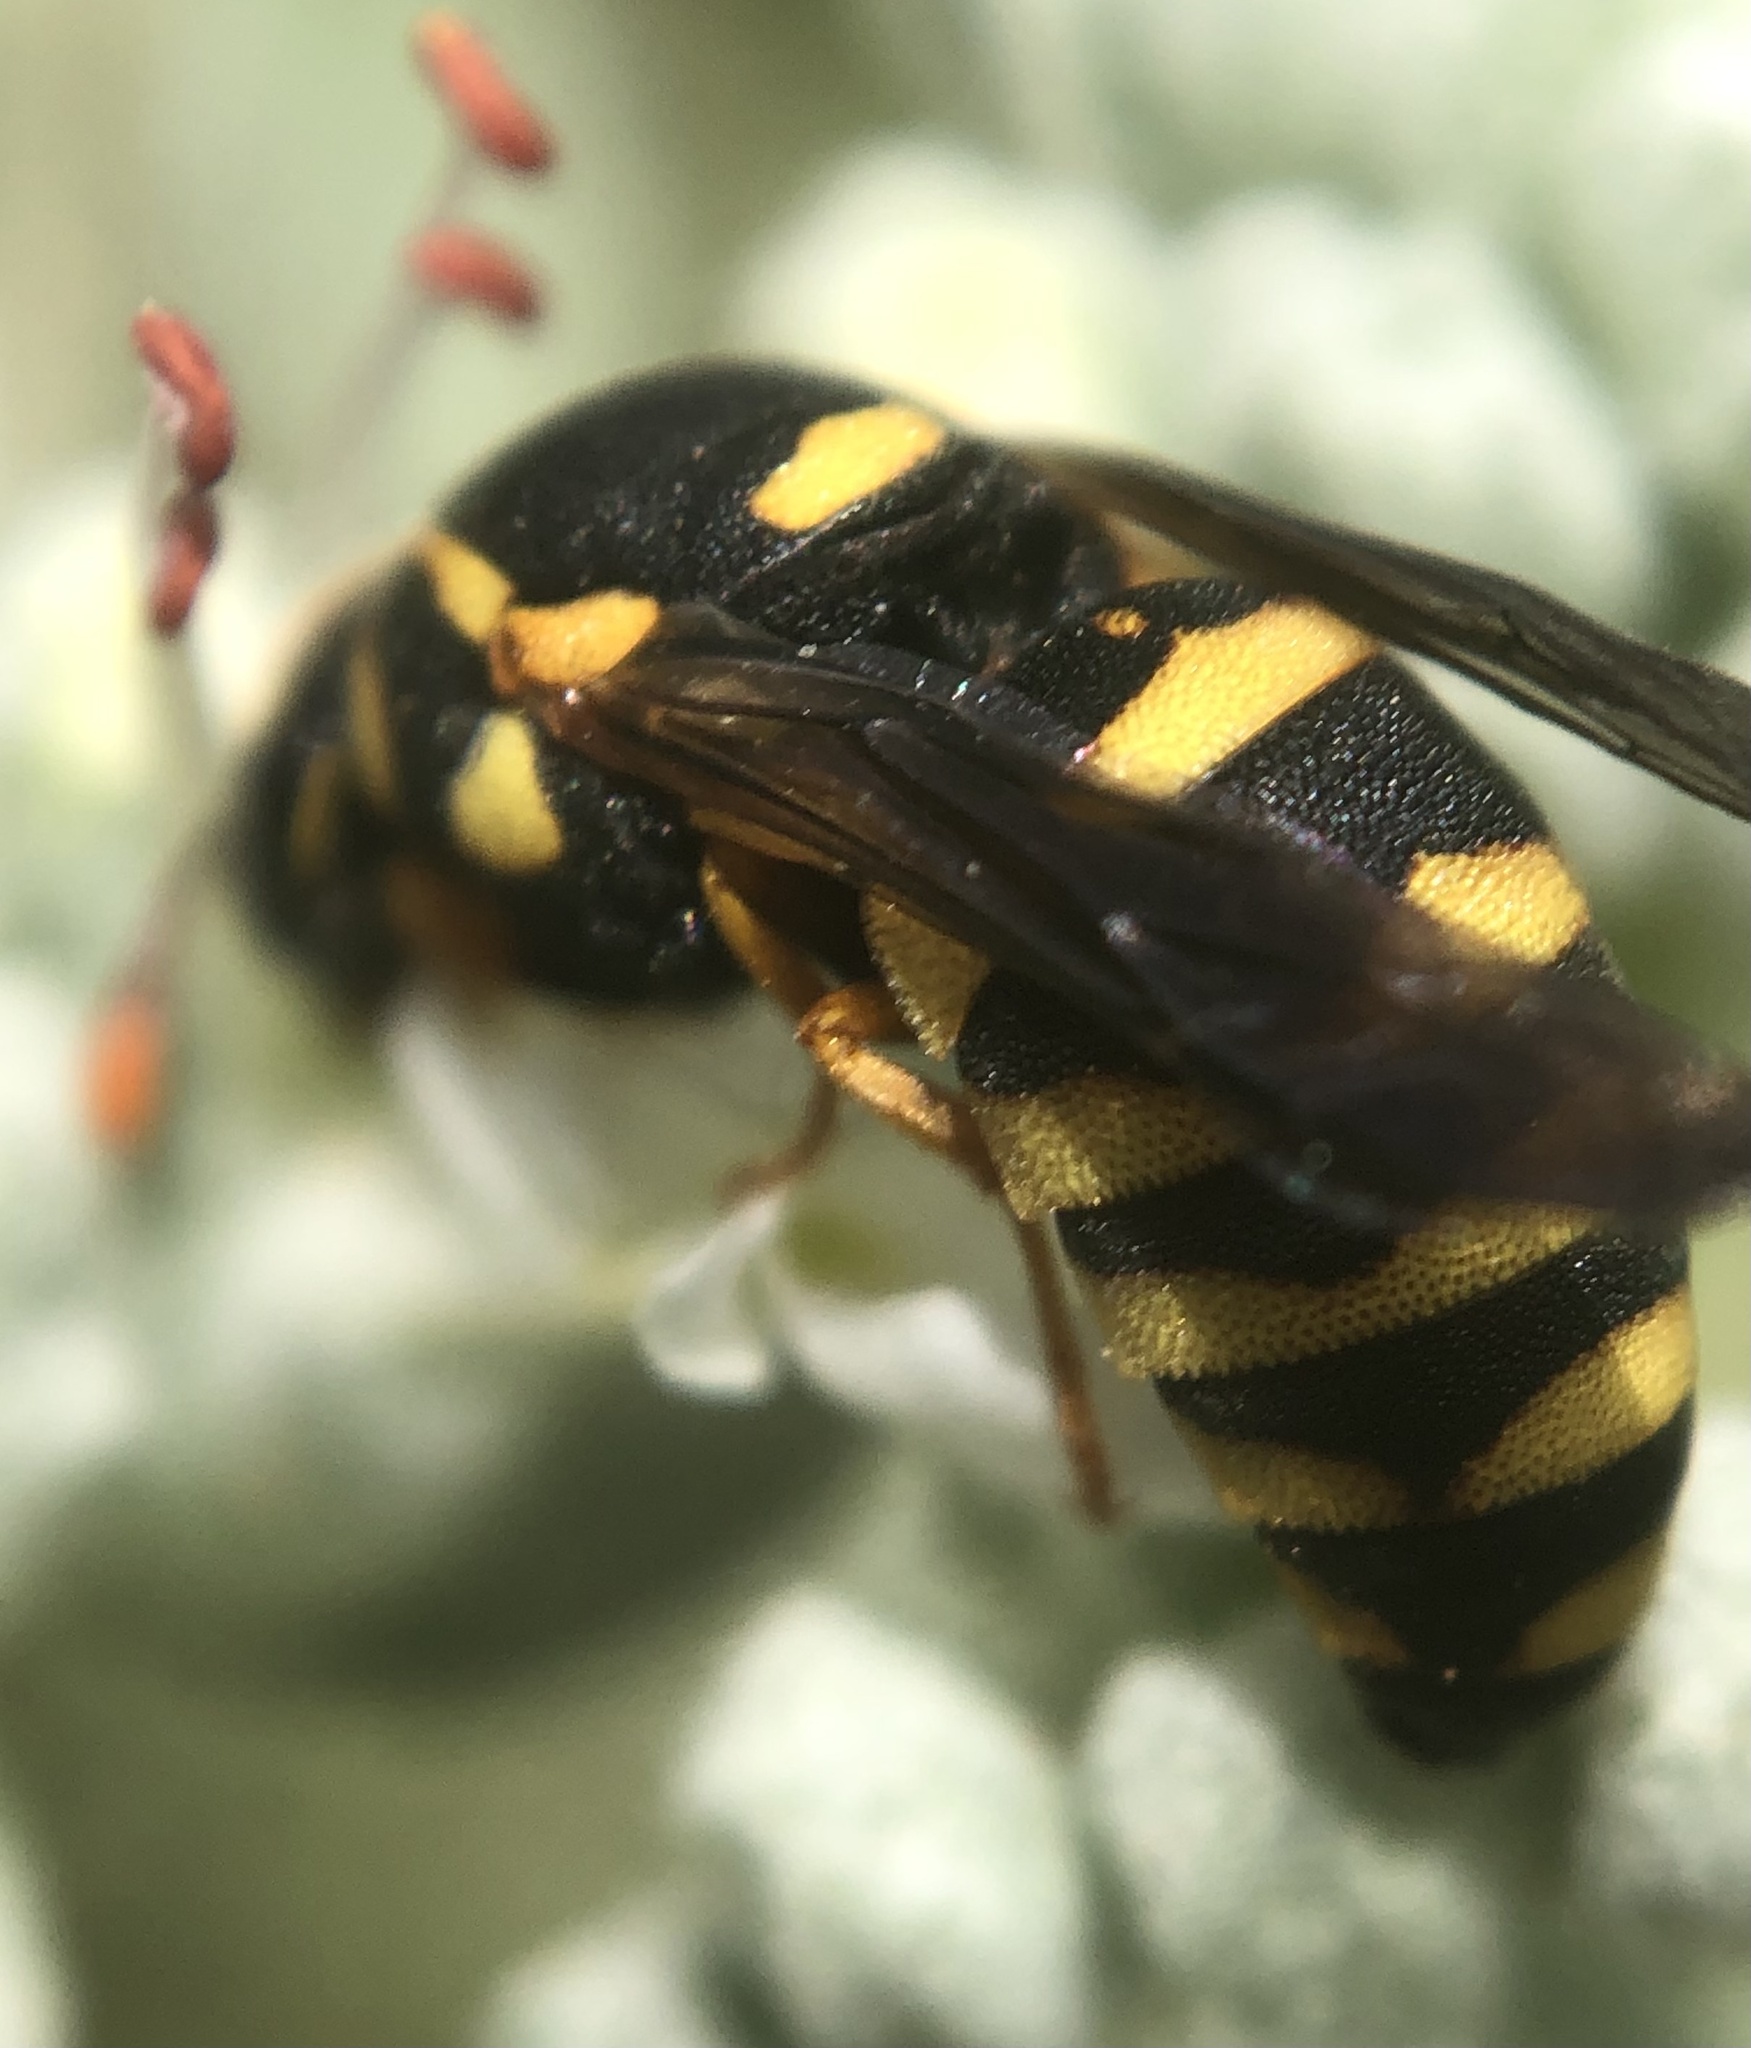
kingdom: Animalia
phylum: Arthropoda
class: Insecta
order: Hymenoptera
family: Masaridae
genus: Celonites
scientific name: Celonites abbreviatus
